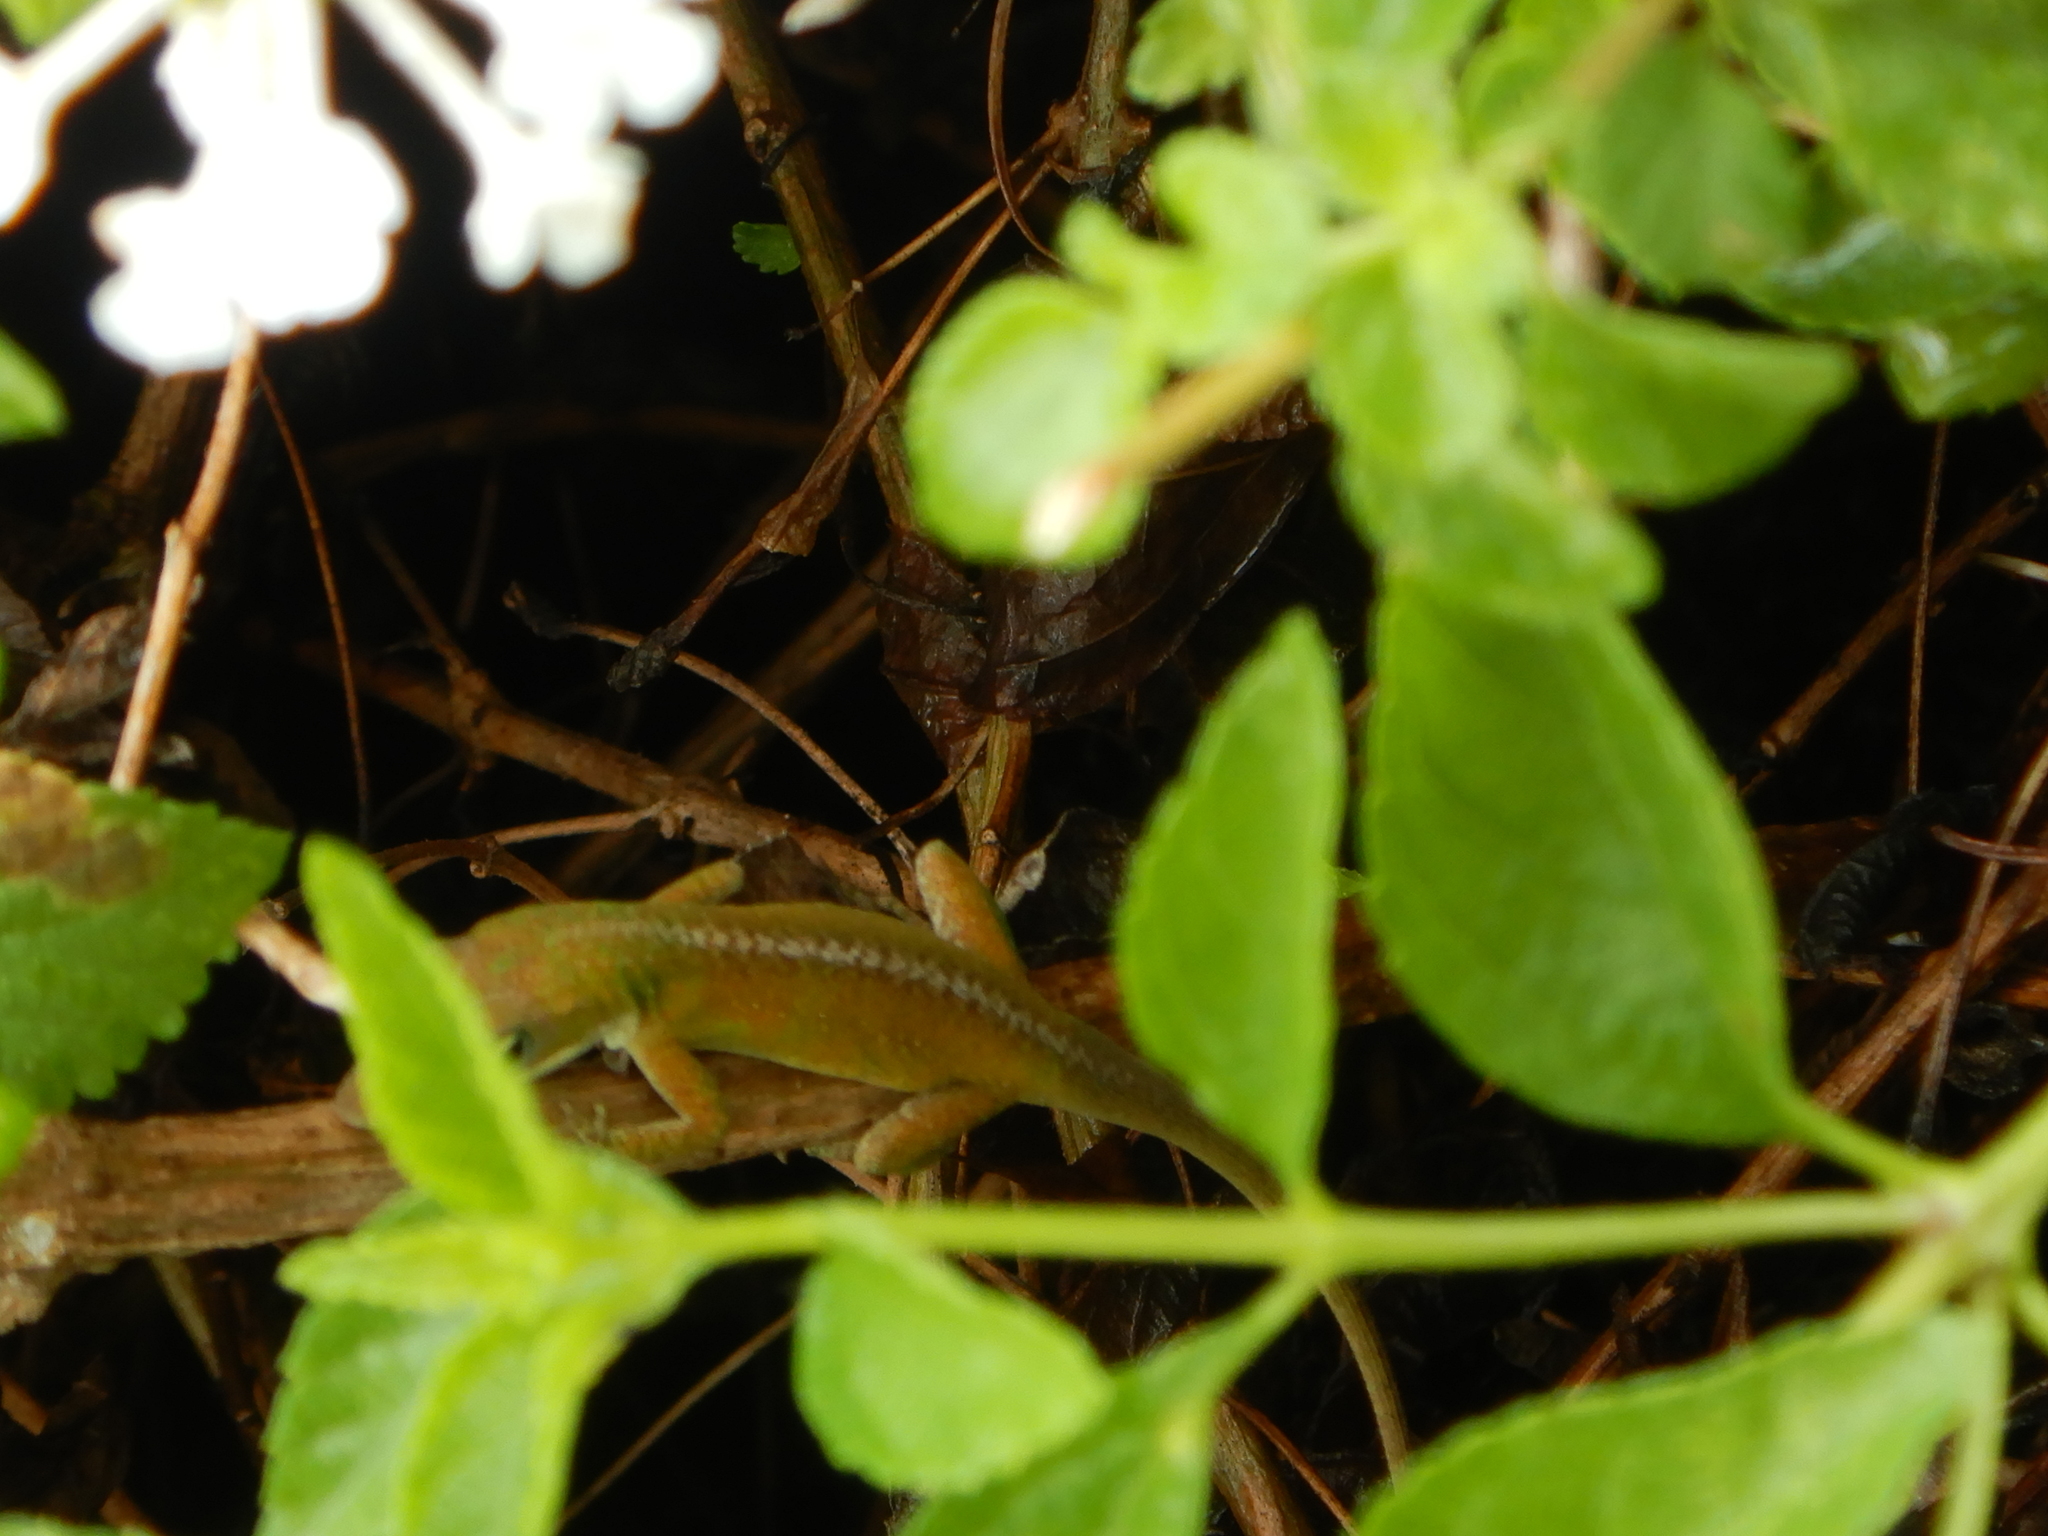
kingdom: Animalia
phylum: Chordata
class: Squamata
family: Dactyloidae
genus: Anolis
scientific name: Anolis carolinensis
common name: Green anole
